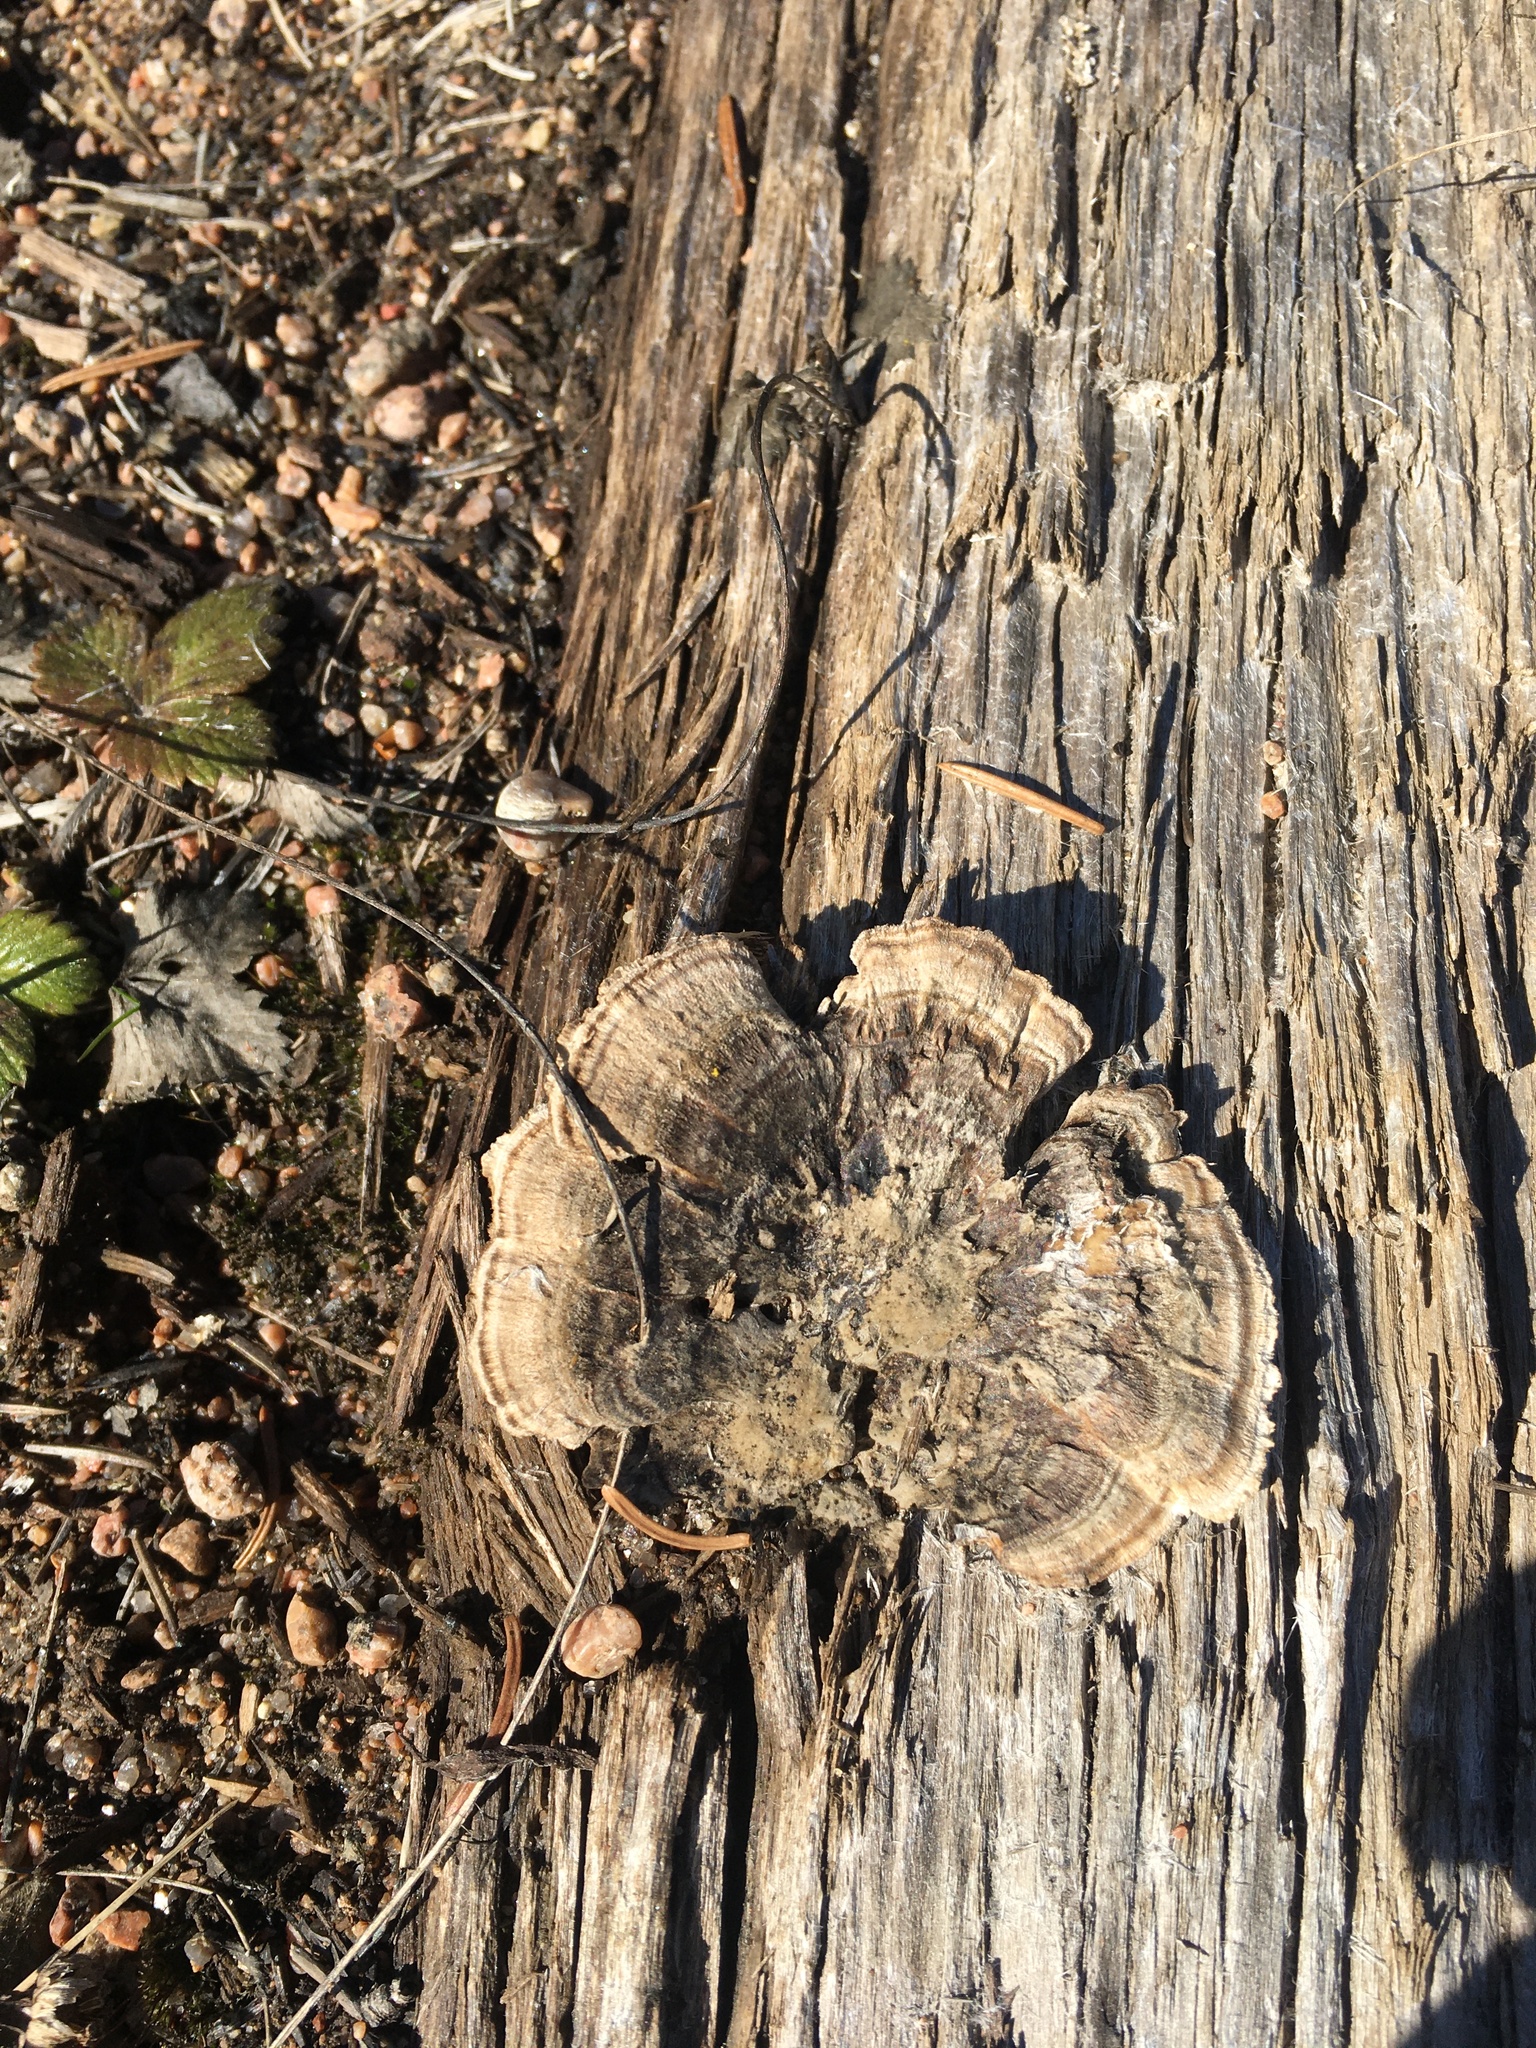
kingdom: Fungi
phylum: Basidiomycota
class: Agaricomycetes
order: Polyporales
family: Polyporaceae
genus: Trametes
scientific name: Trametes versicolor
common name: Turkeytail
